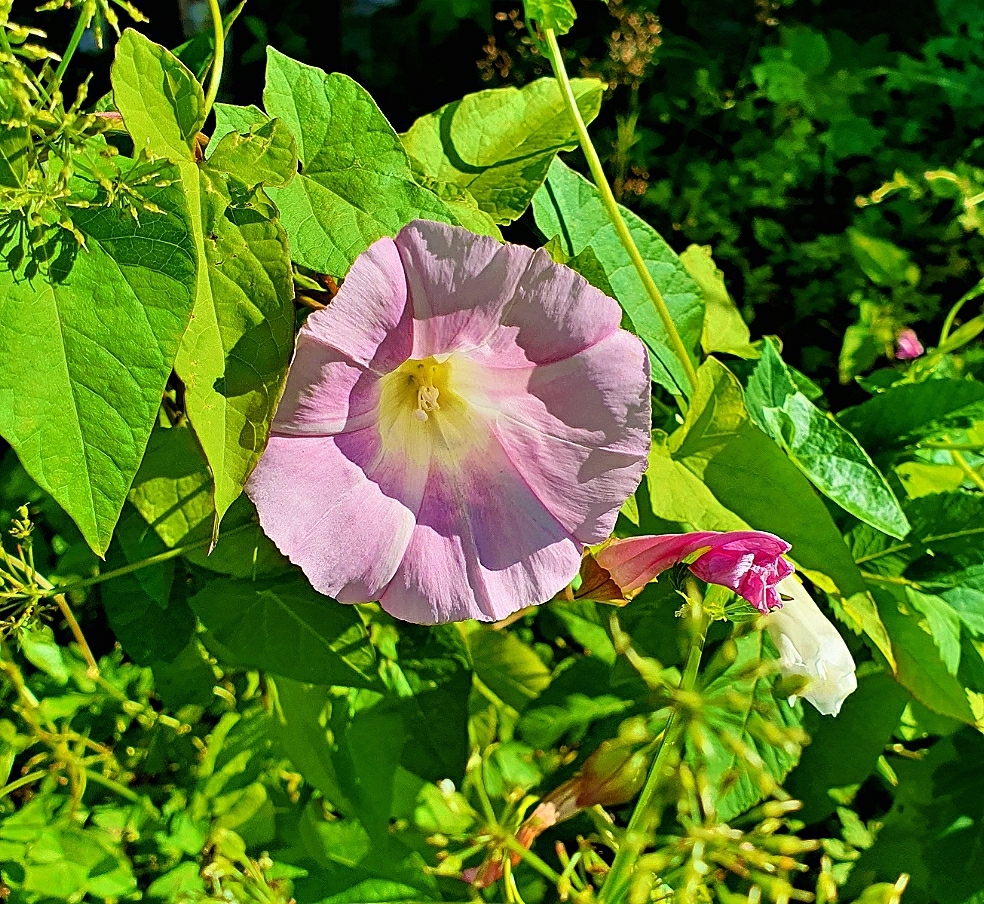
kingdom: Plantae
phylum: Tracheophyta
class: Magnoliopsida
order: Solanales
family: Convolvulaceae
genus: Calystegia
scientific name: Calystegia sepium
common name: Hedge bindweed
